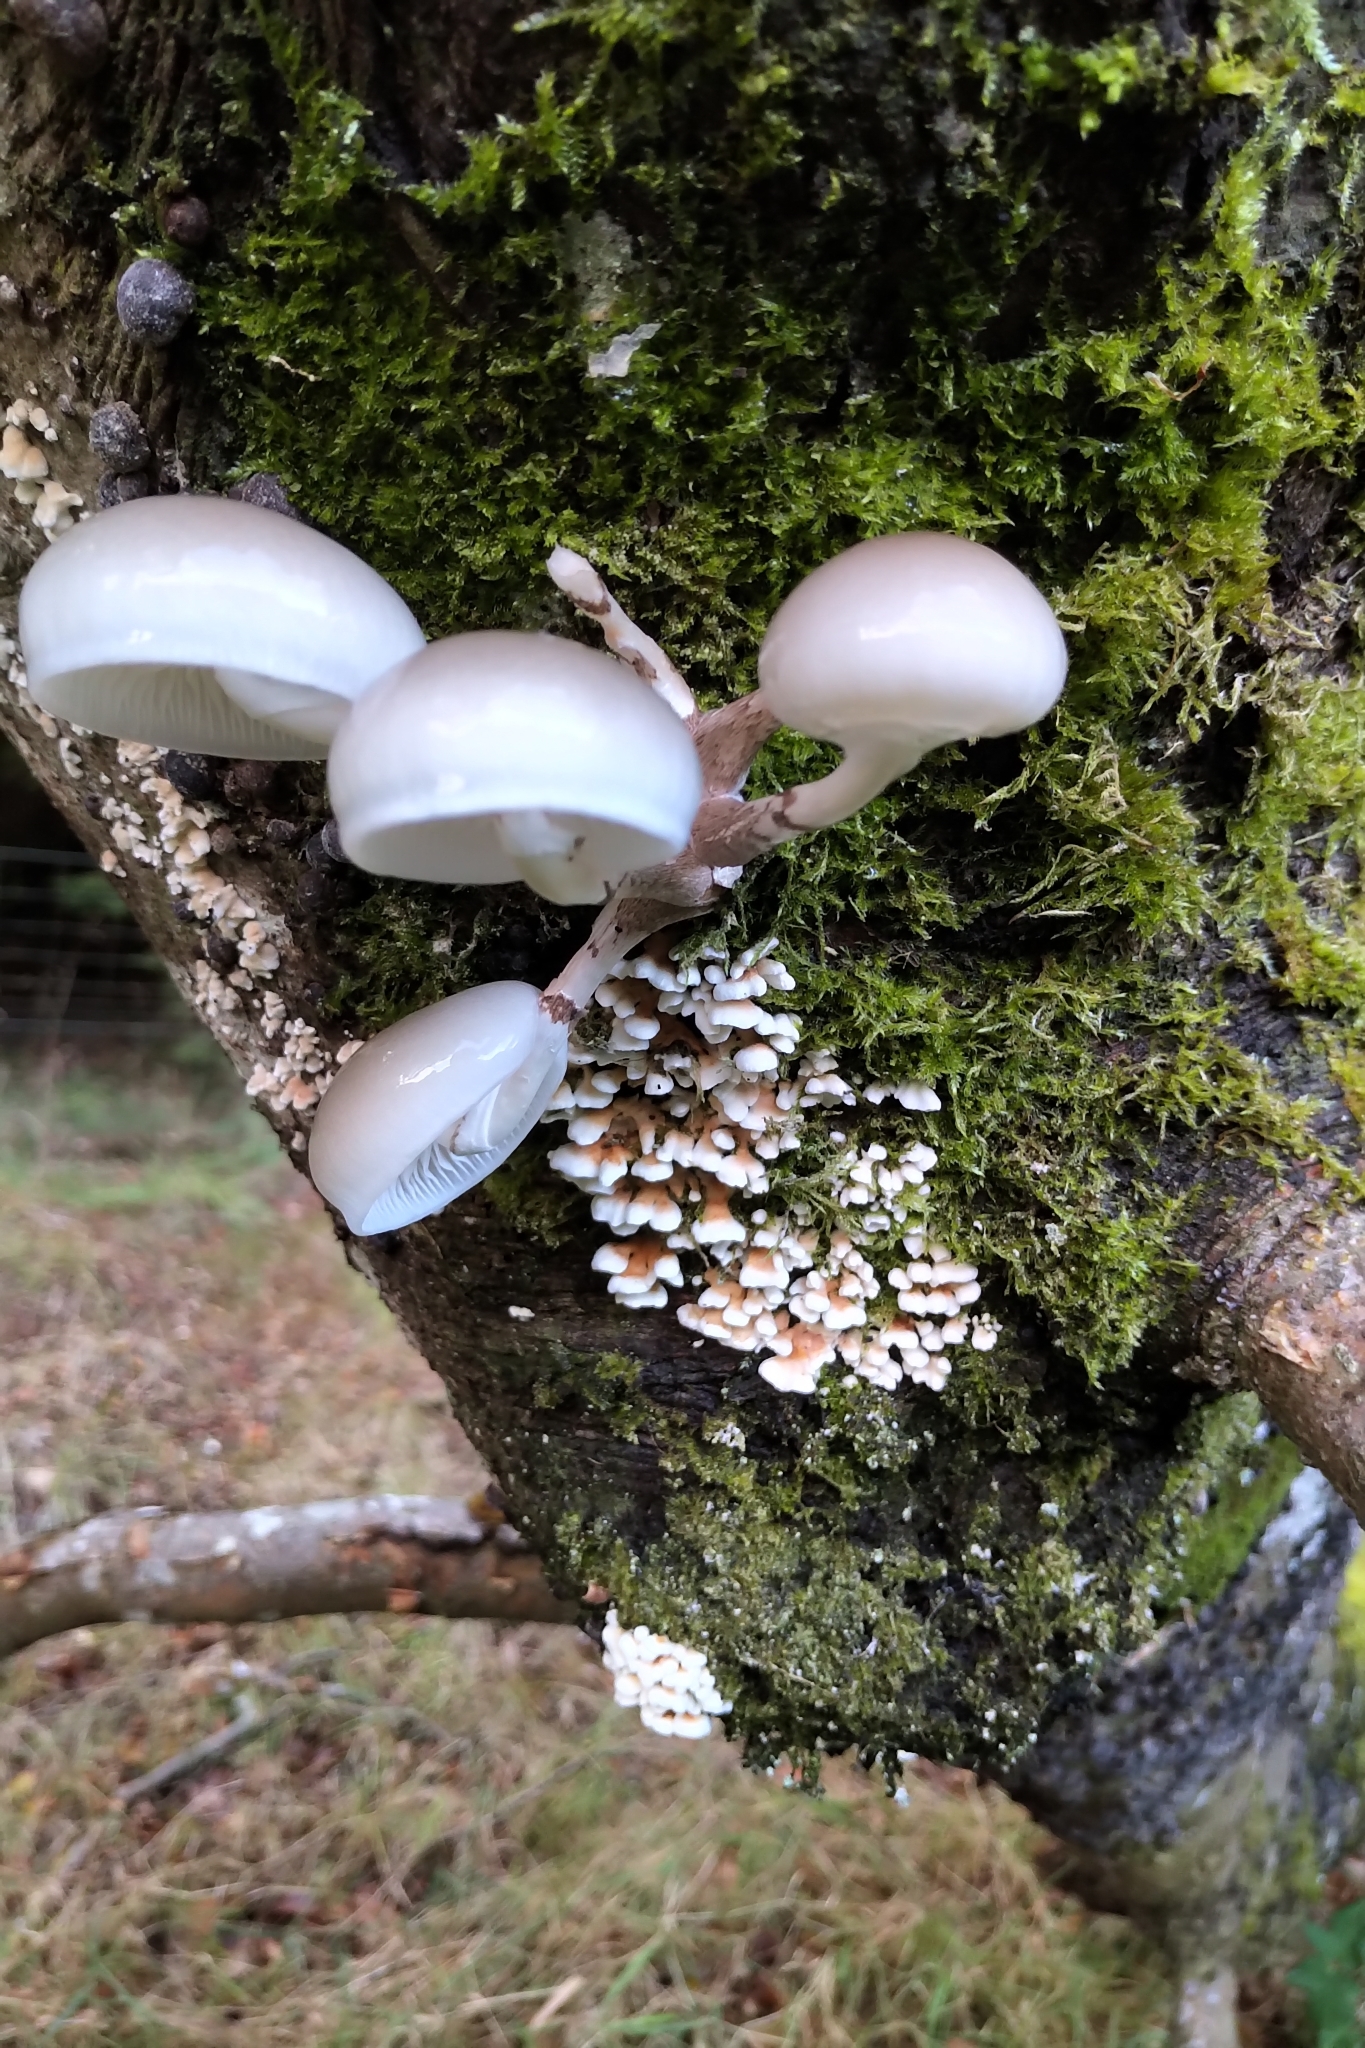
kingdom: Fungi
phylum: Basidiomycota
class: Agaricomycetes
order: Agaricales
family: Physalacriaceae
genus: Mucidula
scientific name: Mucidula mucida
